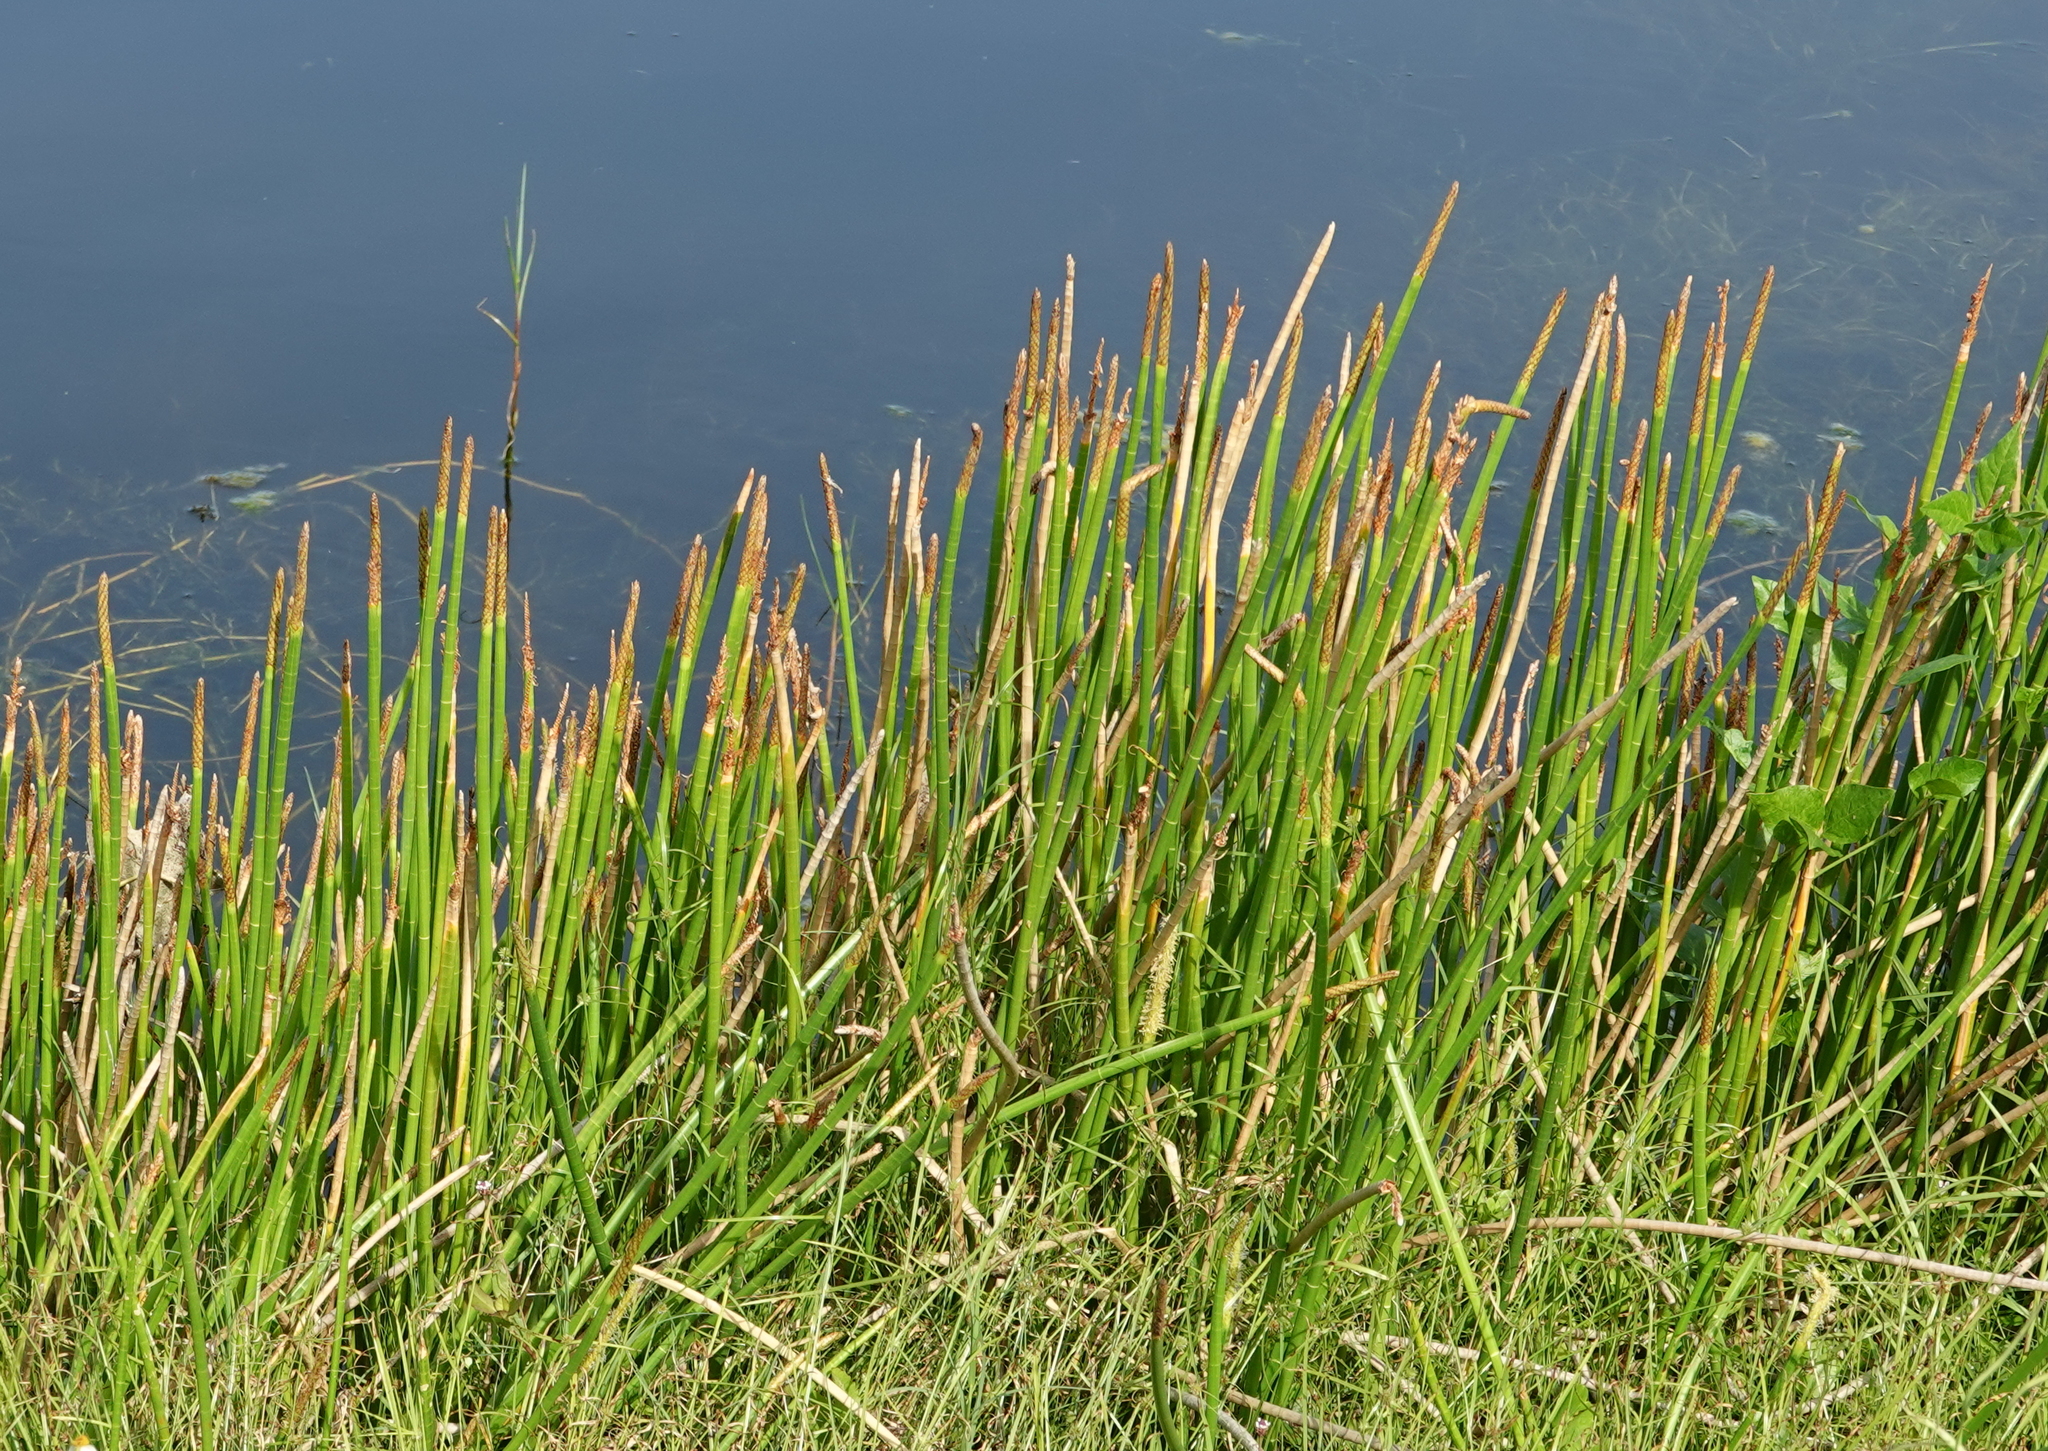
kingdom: Plantae
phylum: Tracheophyta
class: Liliopsida
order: Poales
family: Cyperaceae
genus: Eleocharis
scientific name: Eleocharis interstincta
